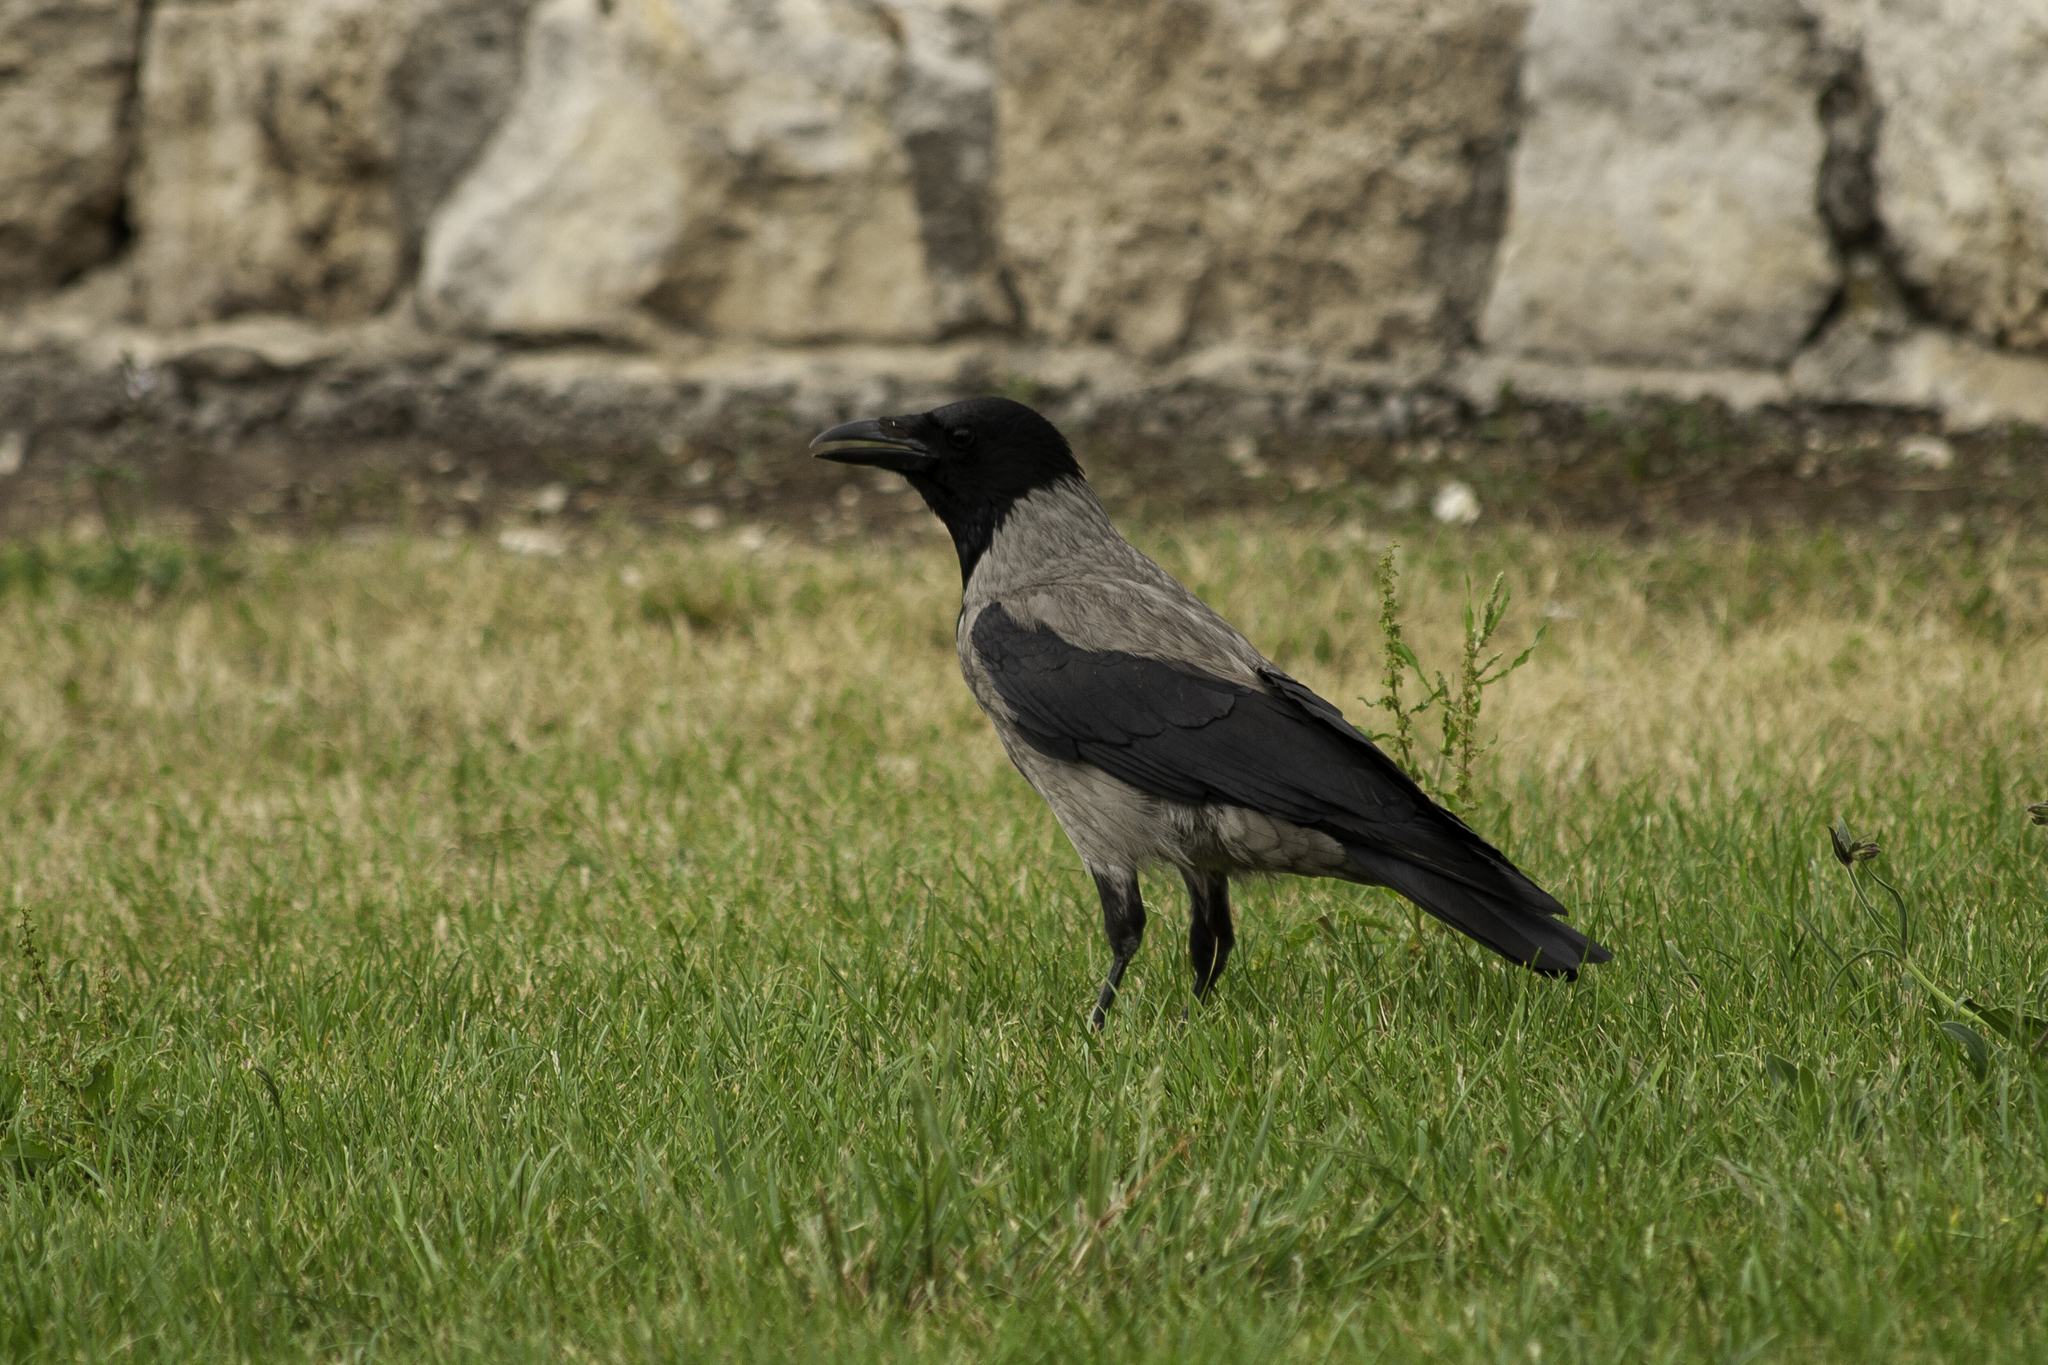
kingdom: Animalia
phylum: Chordata
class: Aves
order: Passeriformes
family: Corvidae
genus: Corvus
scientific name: Corvus cornix
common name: Hooded crow
